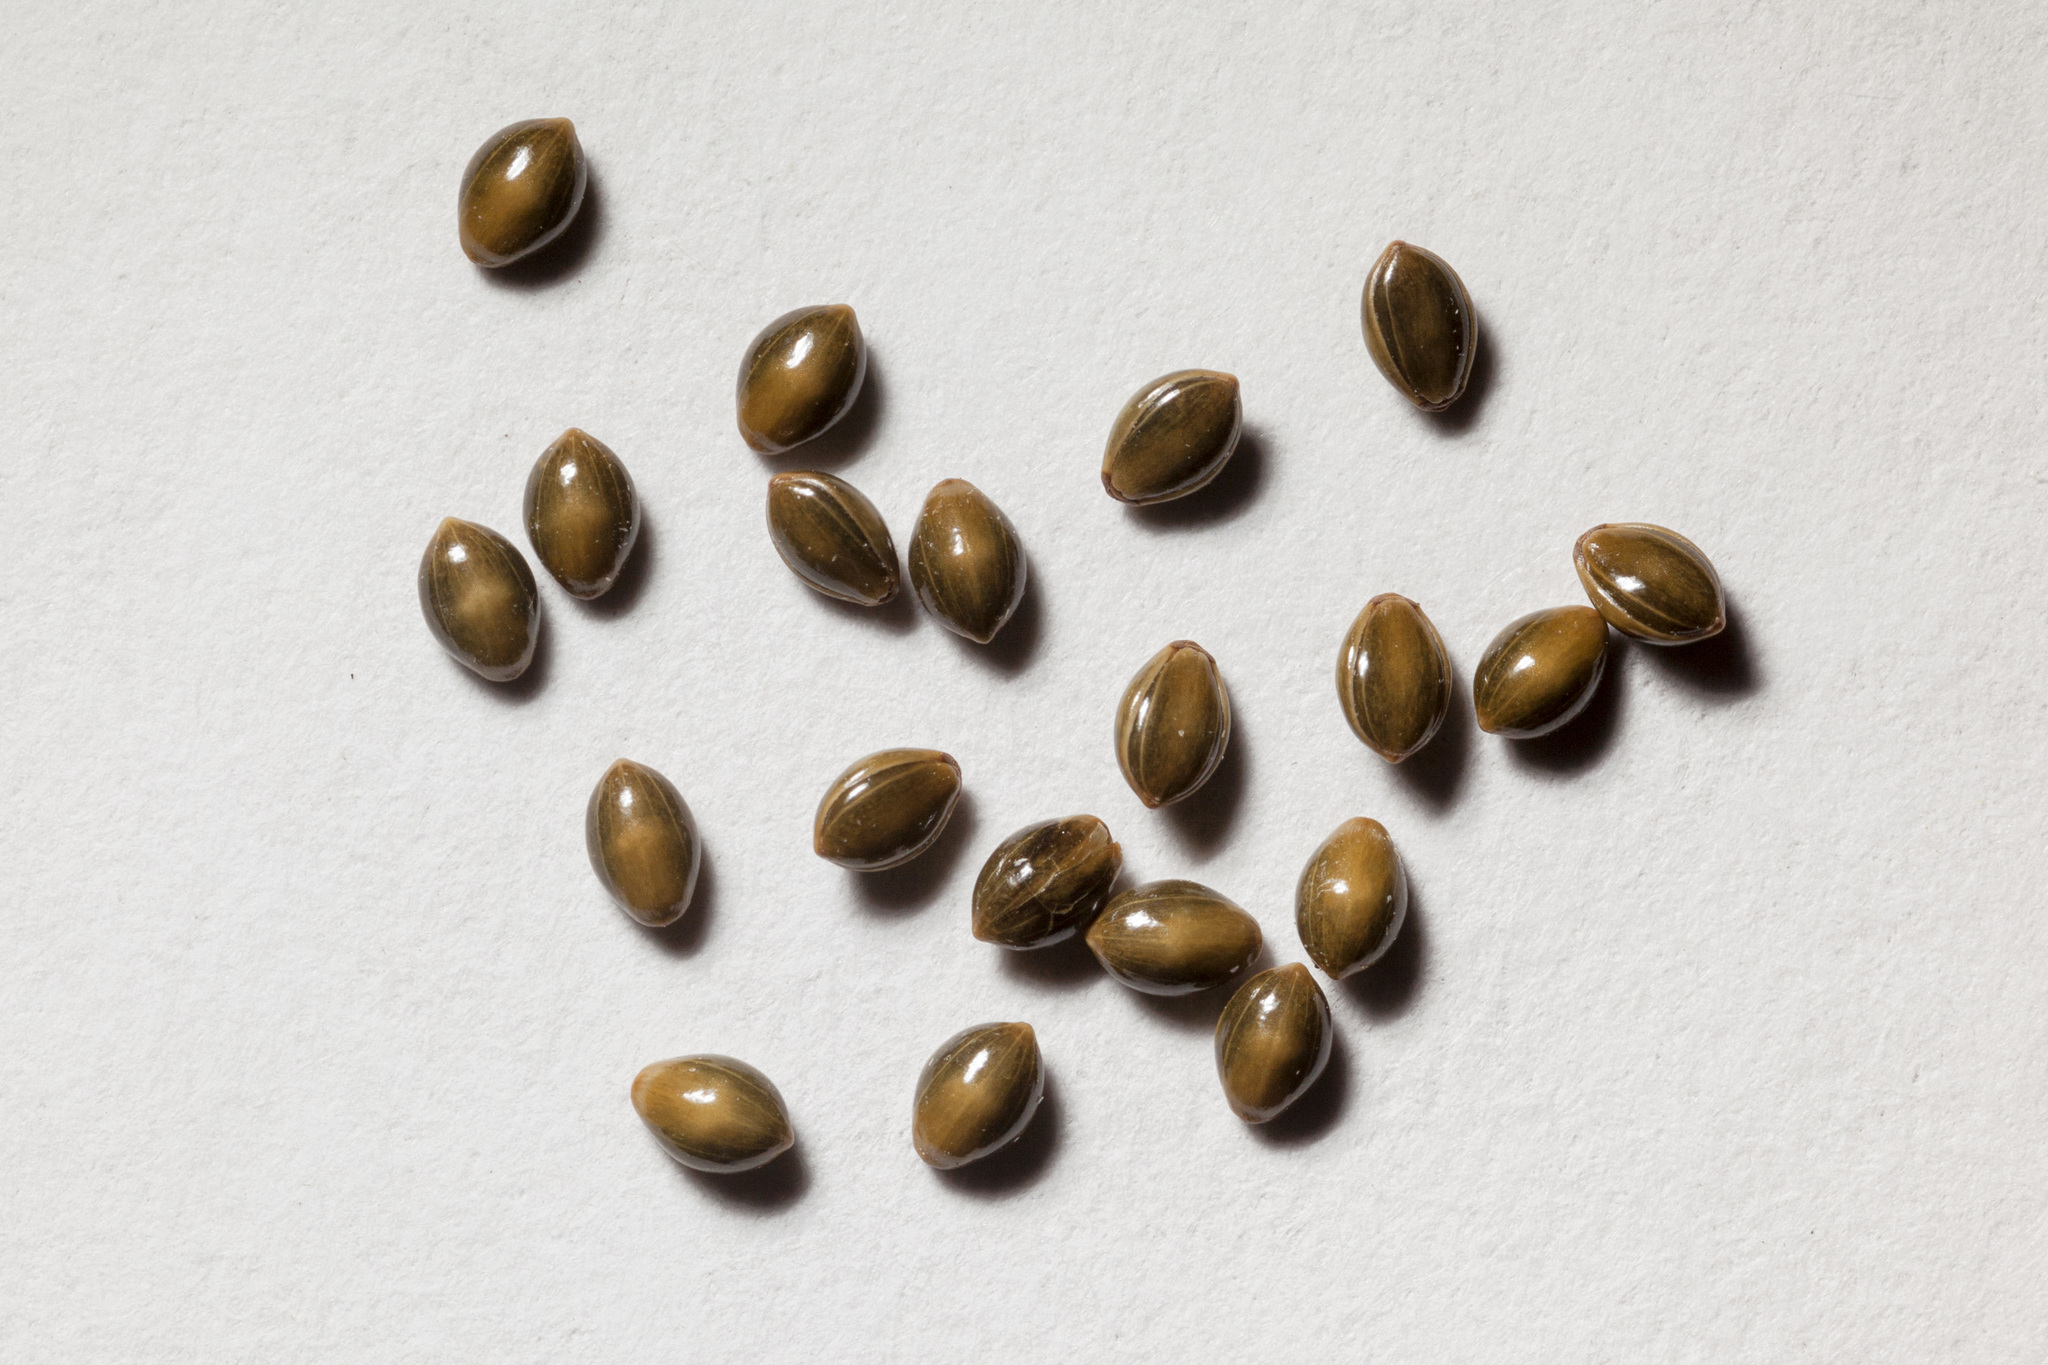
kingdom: Plantae
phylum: Tracheophyta
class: Liliopsida
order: Poales
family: Poaceae
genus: Panicum
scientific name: Panicum hallii
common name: Hall's witchgrass
